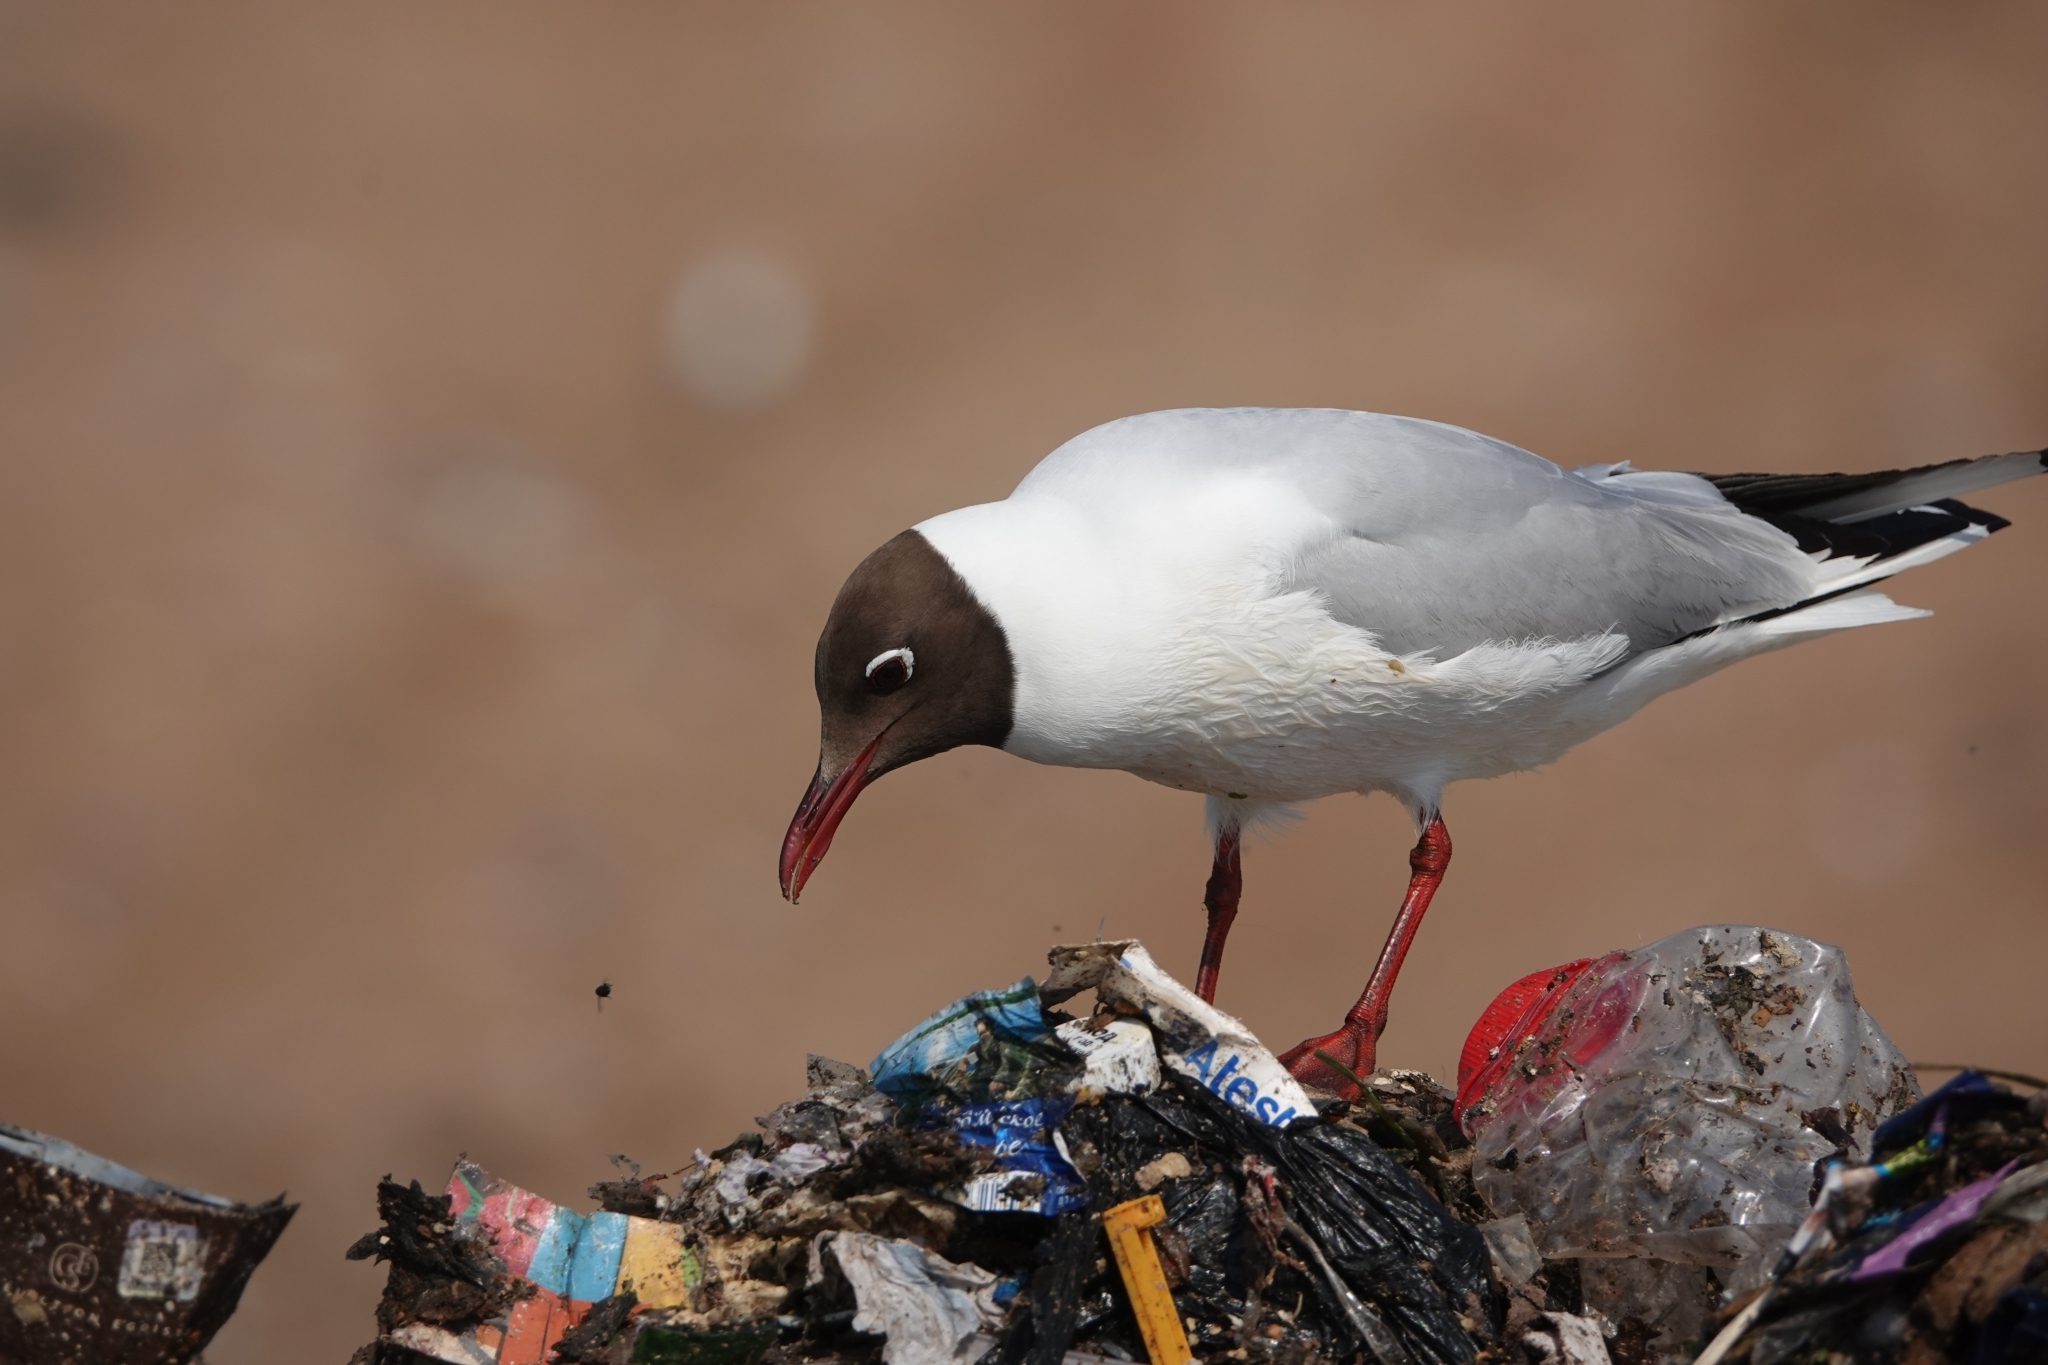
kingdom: Animalia
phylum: Chordata
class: Aves
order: Charadriiformes
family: Laridae
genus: Chroicocephalus
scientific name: Chroicocephalus ridibundus
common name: Black-headed gull
